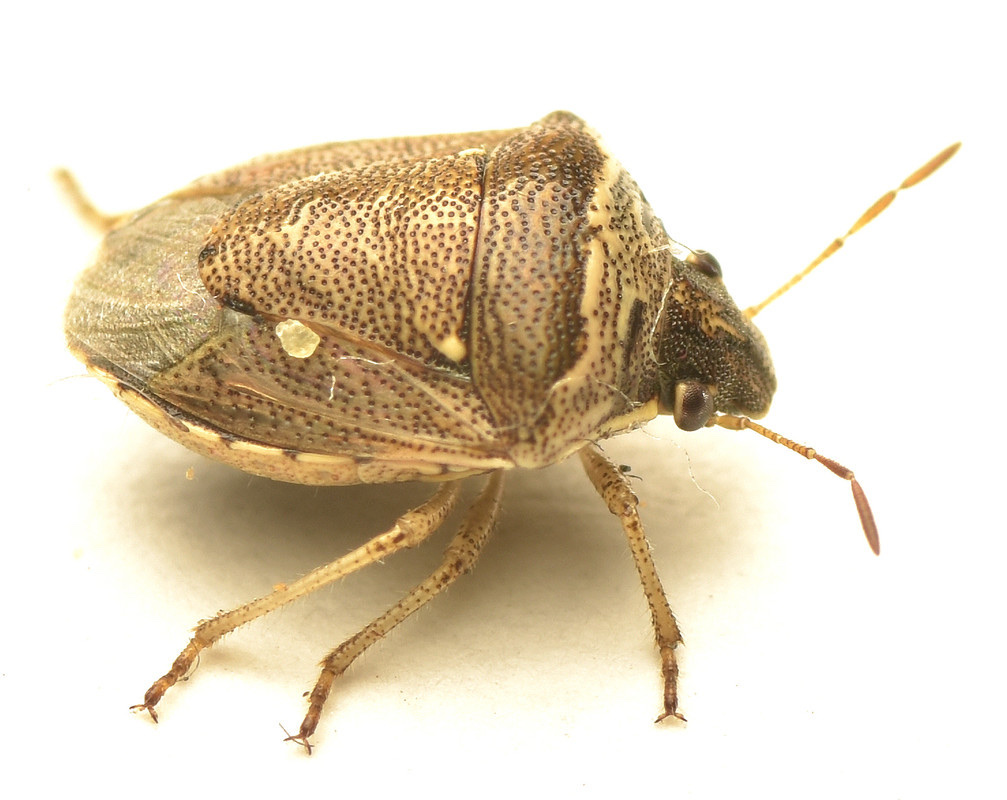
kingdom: Animalia
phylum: Arthropoda
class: Insecta
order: Hemiptera
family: Pentatomidae
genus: Eysarcoris
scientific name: Eysarcoris
